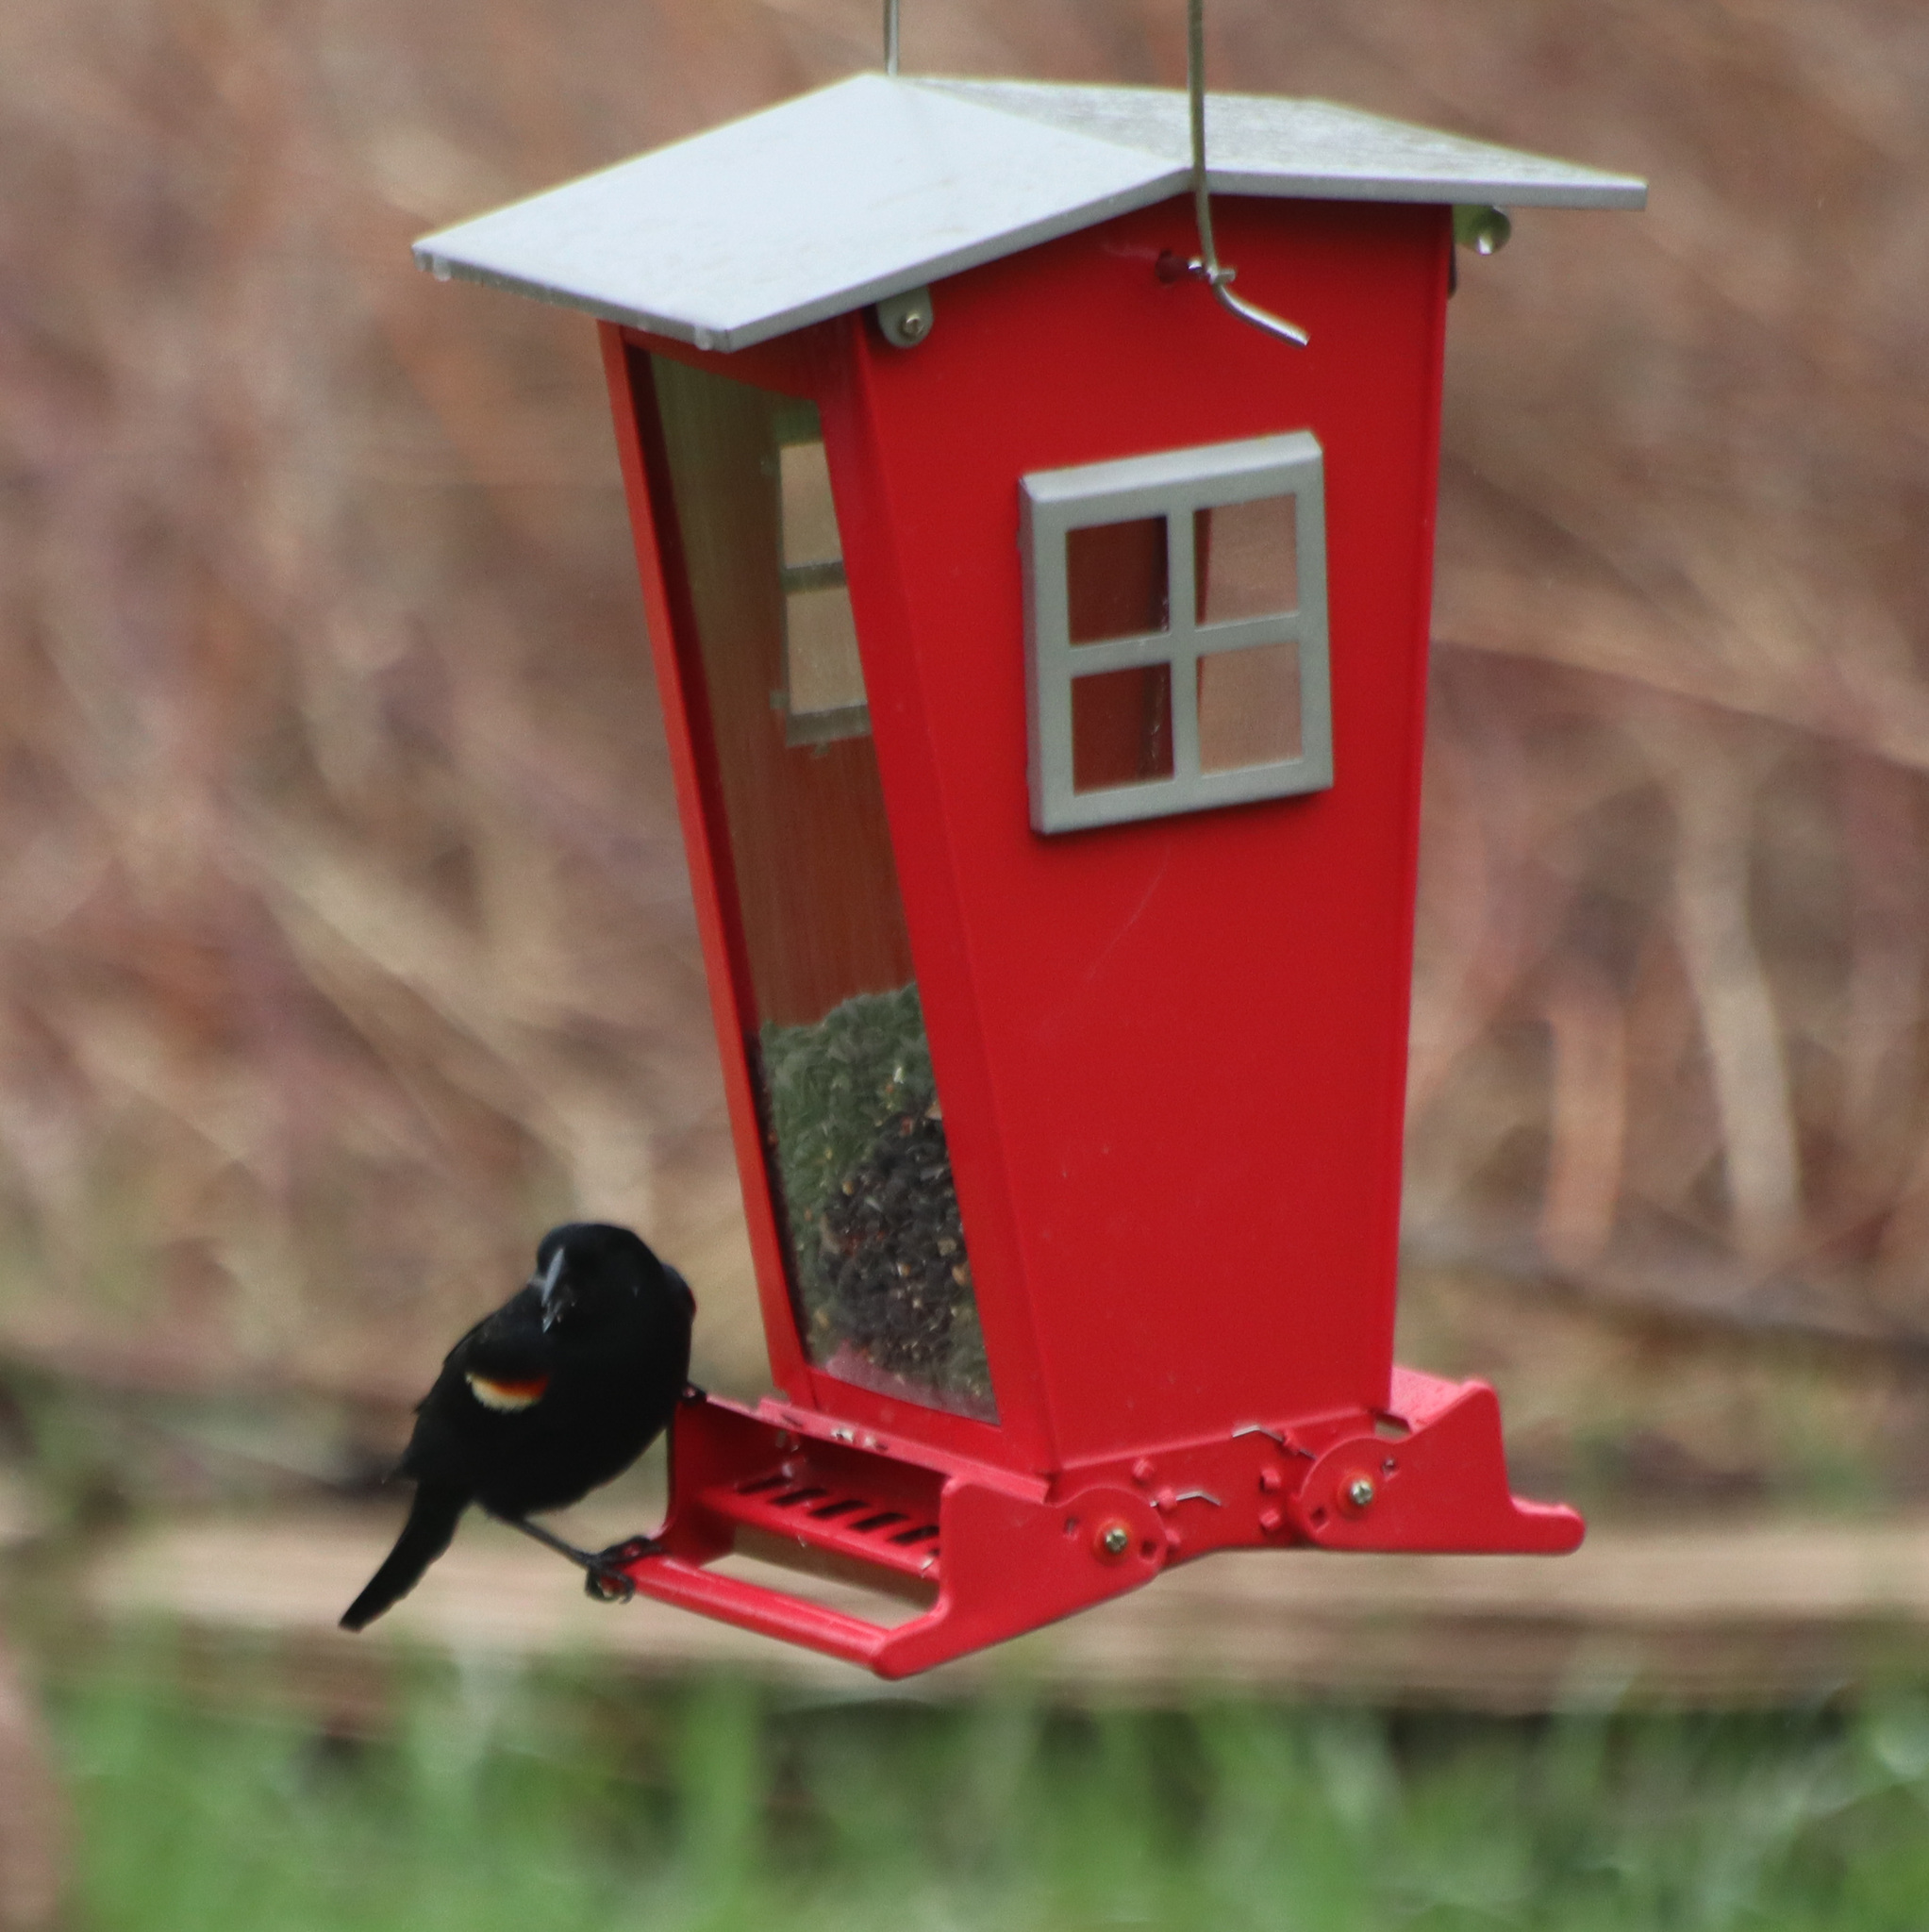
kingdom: Animalia
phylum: Chordata
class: Aves
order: Passeriformes
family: Icteridae
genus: Agelaius
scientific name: Agelaius phoeniceus
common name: Red-winged blackbird
